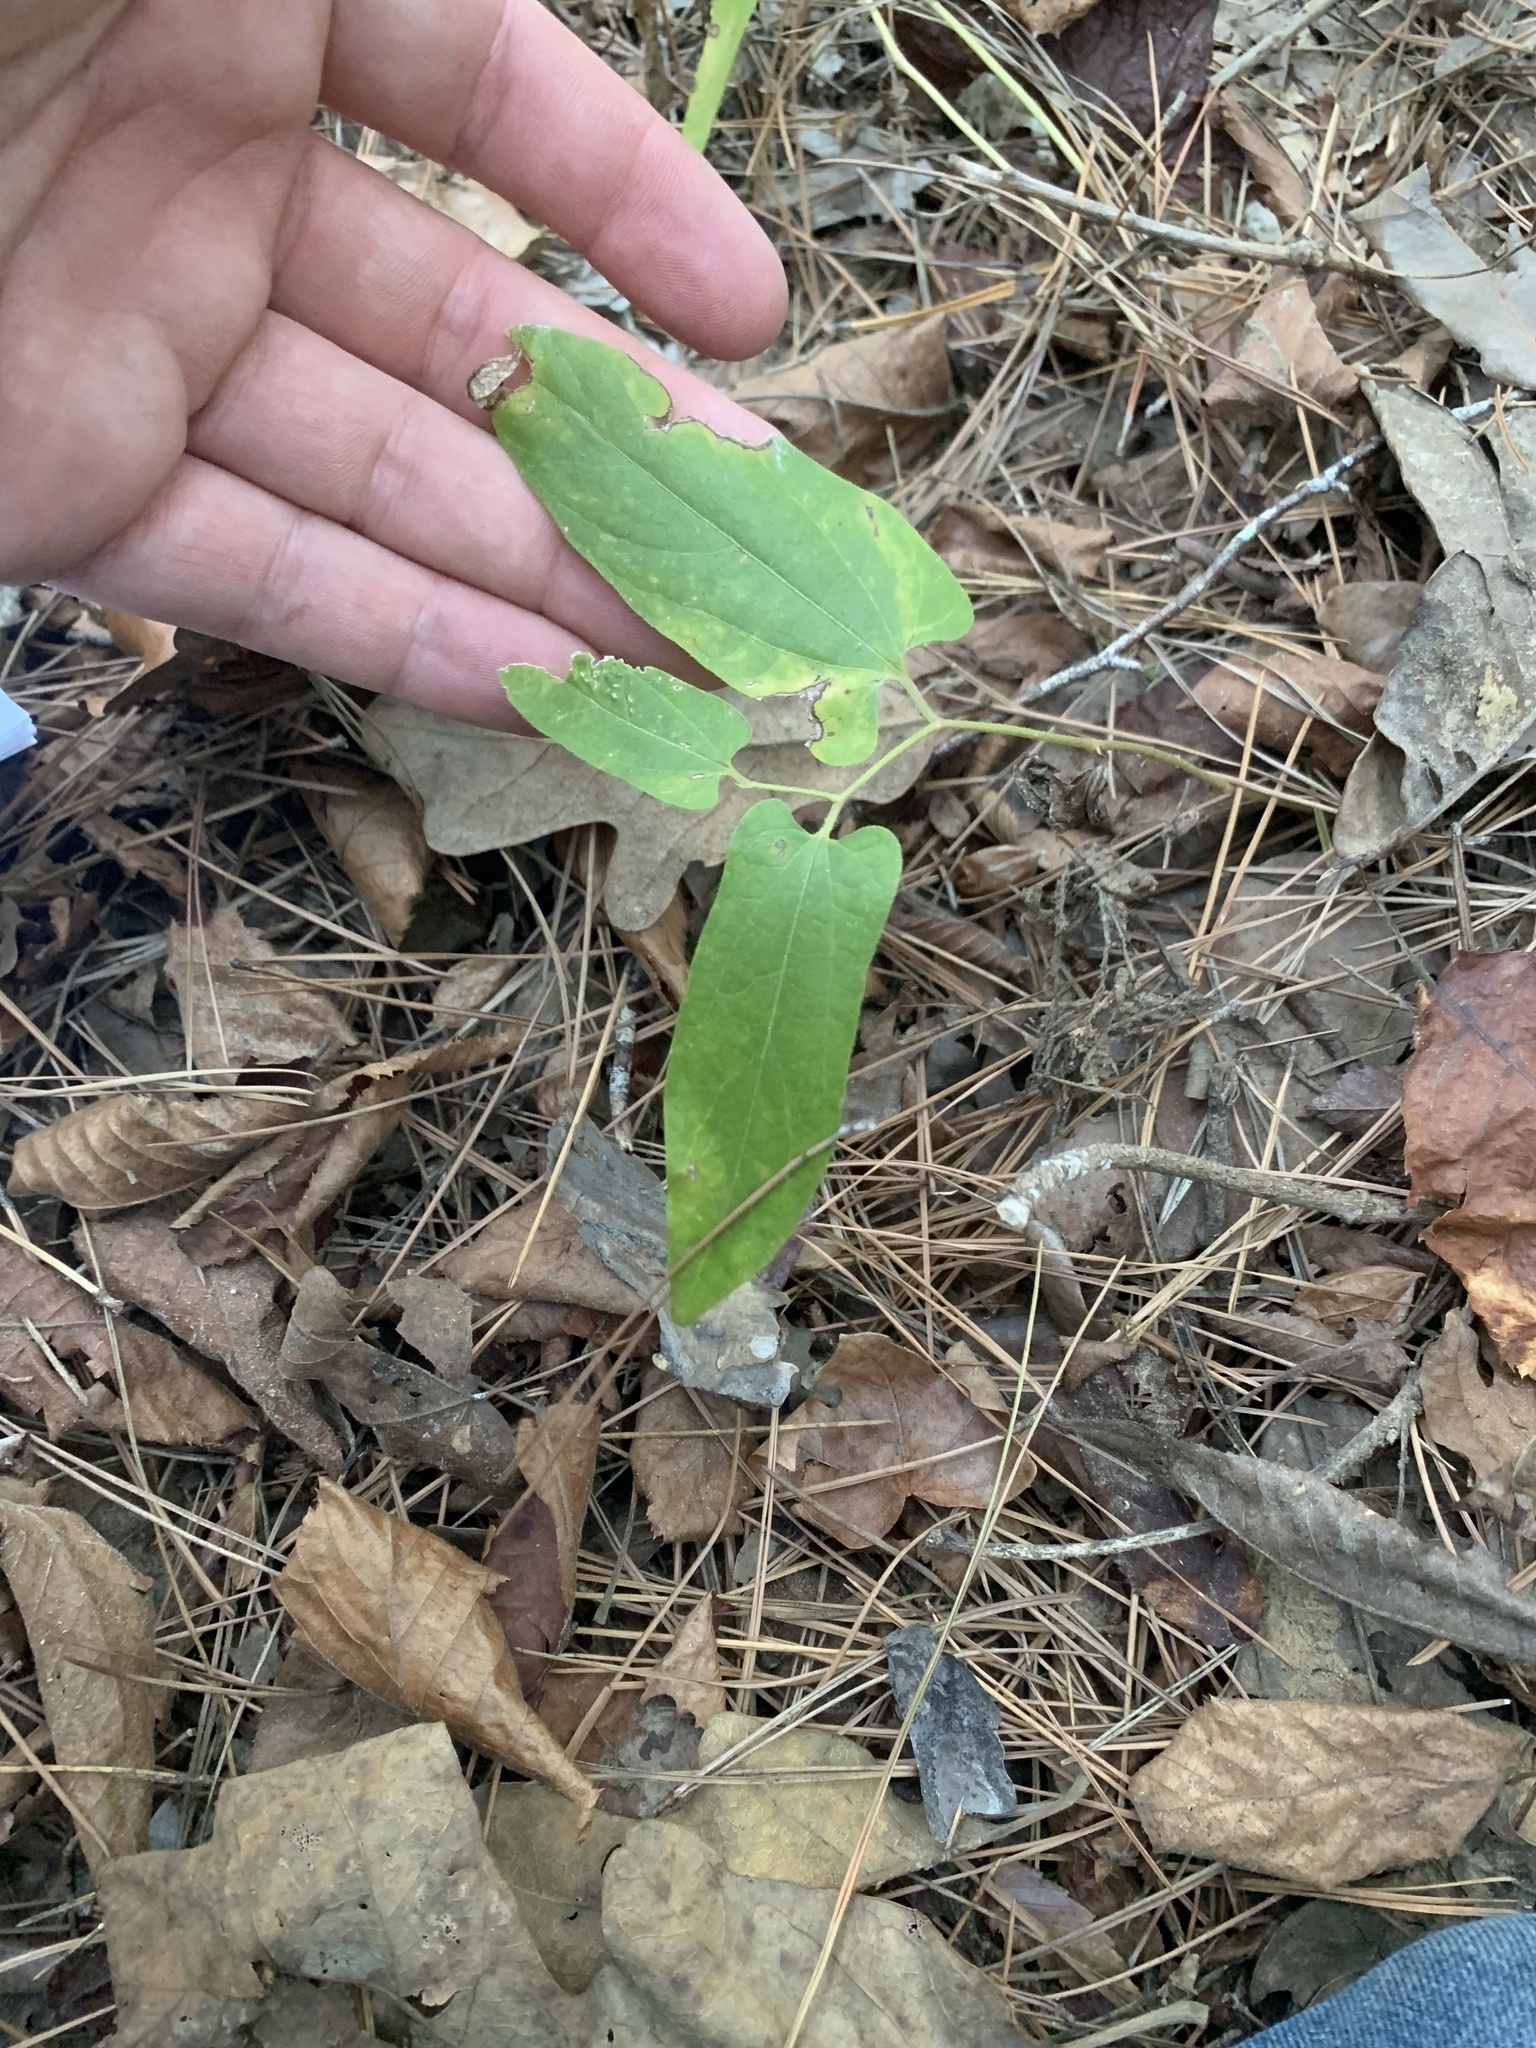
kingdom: Plantae
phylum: Tracheophyta
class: Magnoliopsida
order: Piperales
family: Aristolochiaceae
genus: Endodeca
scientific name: Endodeca serpentaria
